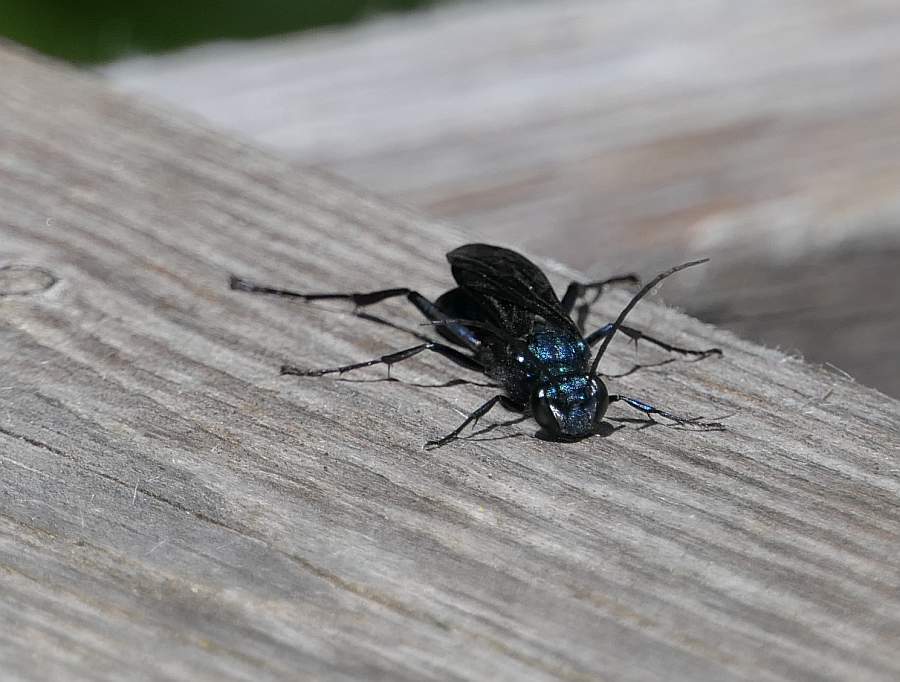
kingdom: Animalia
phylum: Arthropoda
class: Insecta
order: Hymenoptera
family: Sphecidae
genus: Chalybion
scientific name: Chalybion californicum
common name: Mud dauber
